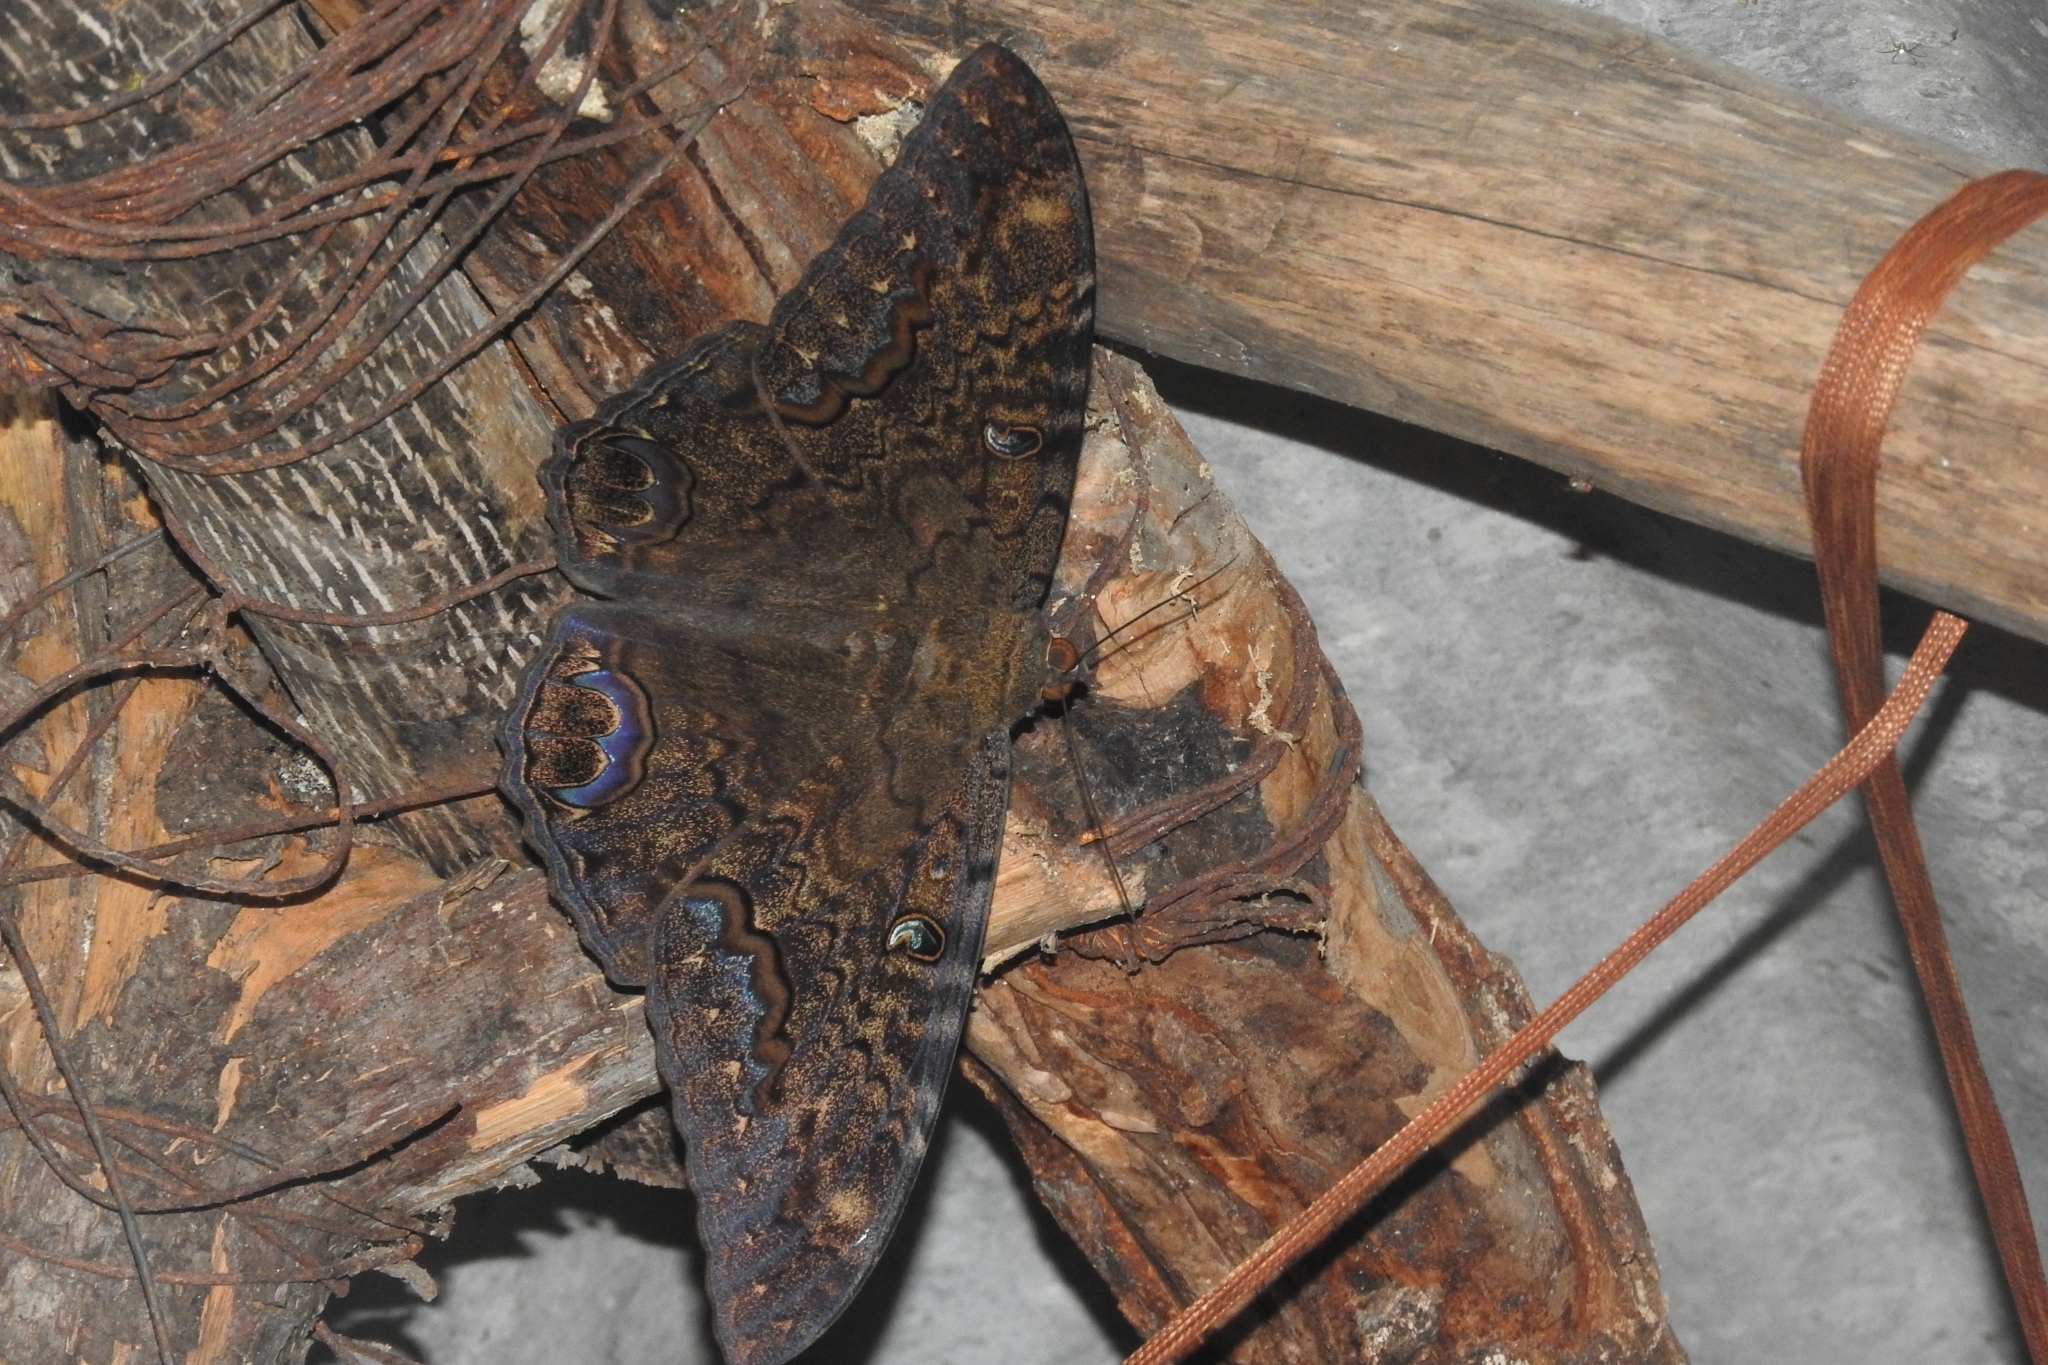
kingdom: Animalia
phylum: Arthropoda
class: Insecta
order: Lepidoptera
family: Erebidae
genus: Ascalapha
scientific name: Ascalapha odorata
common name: Black witch
